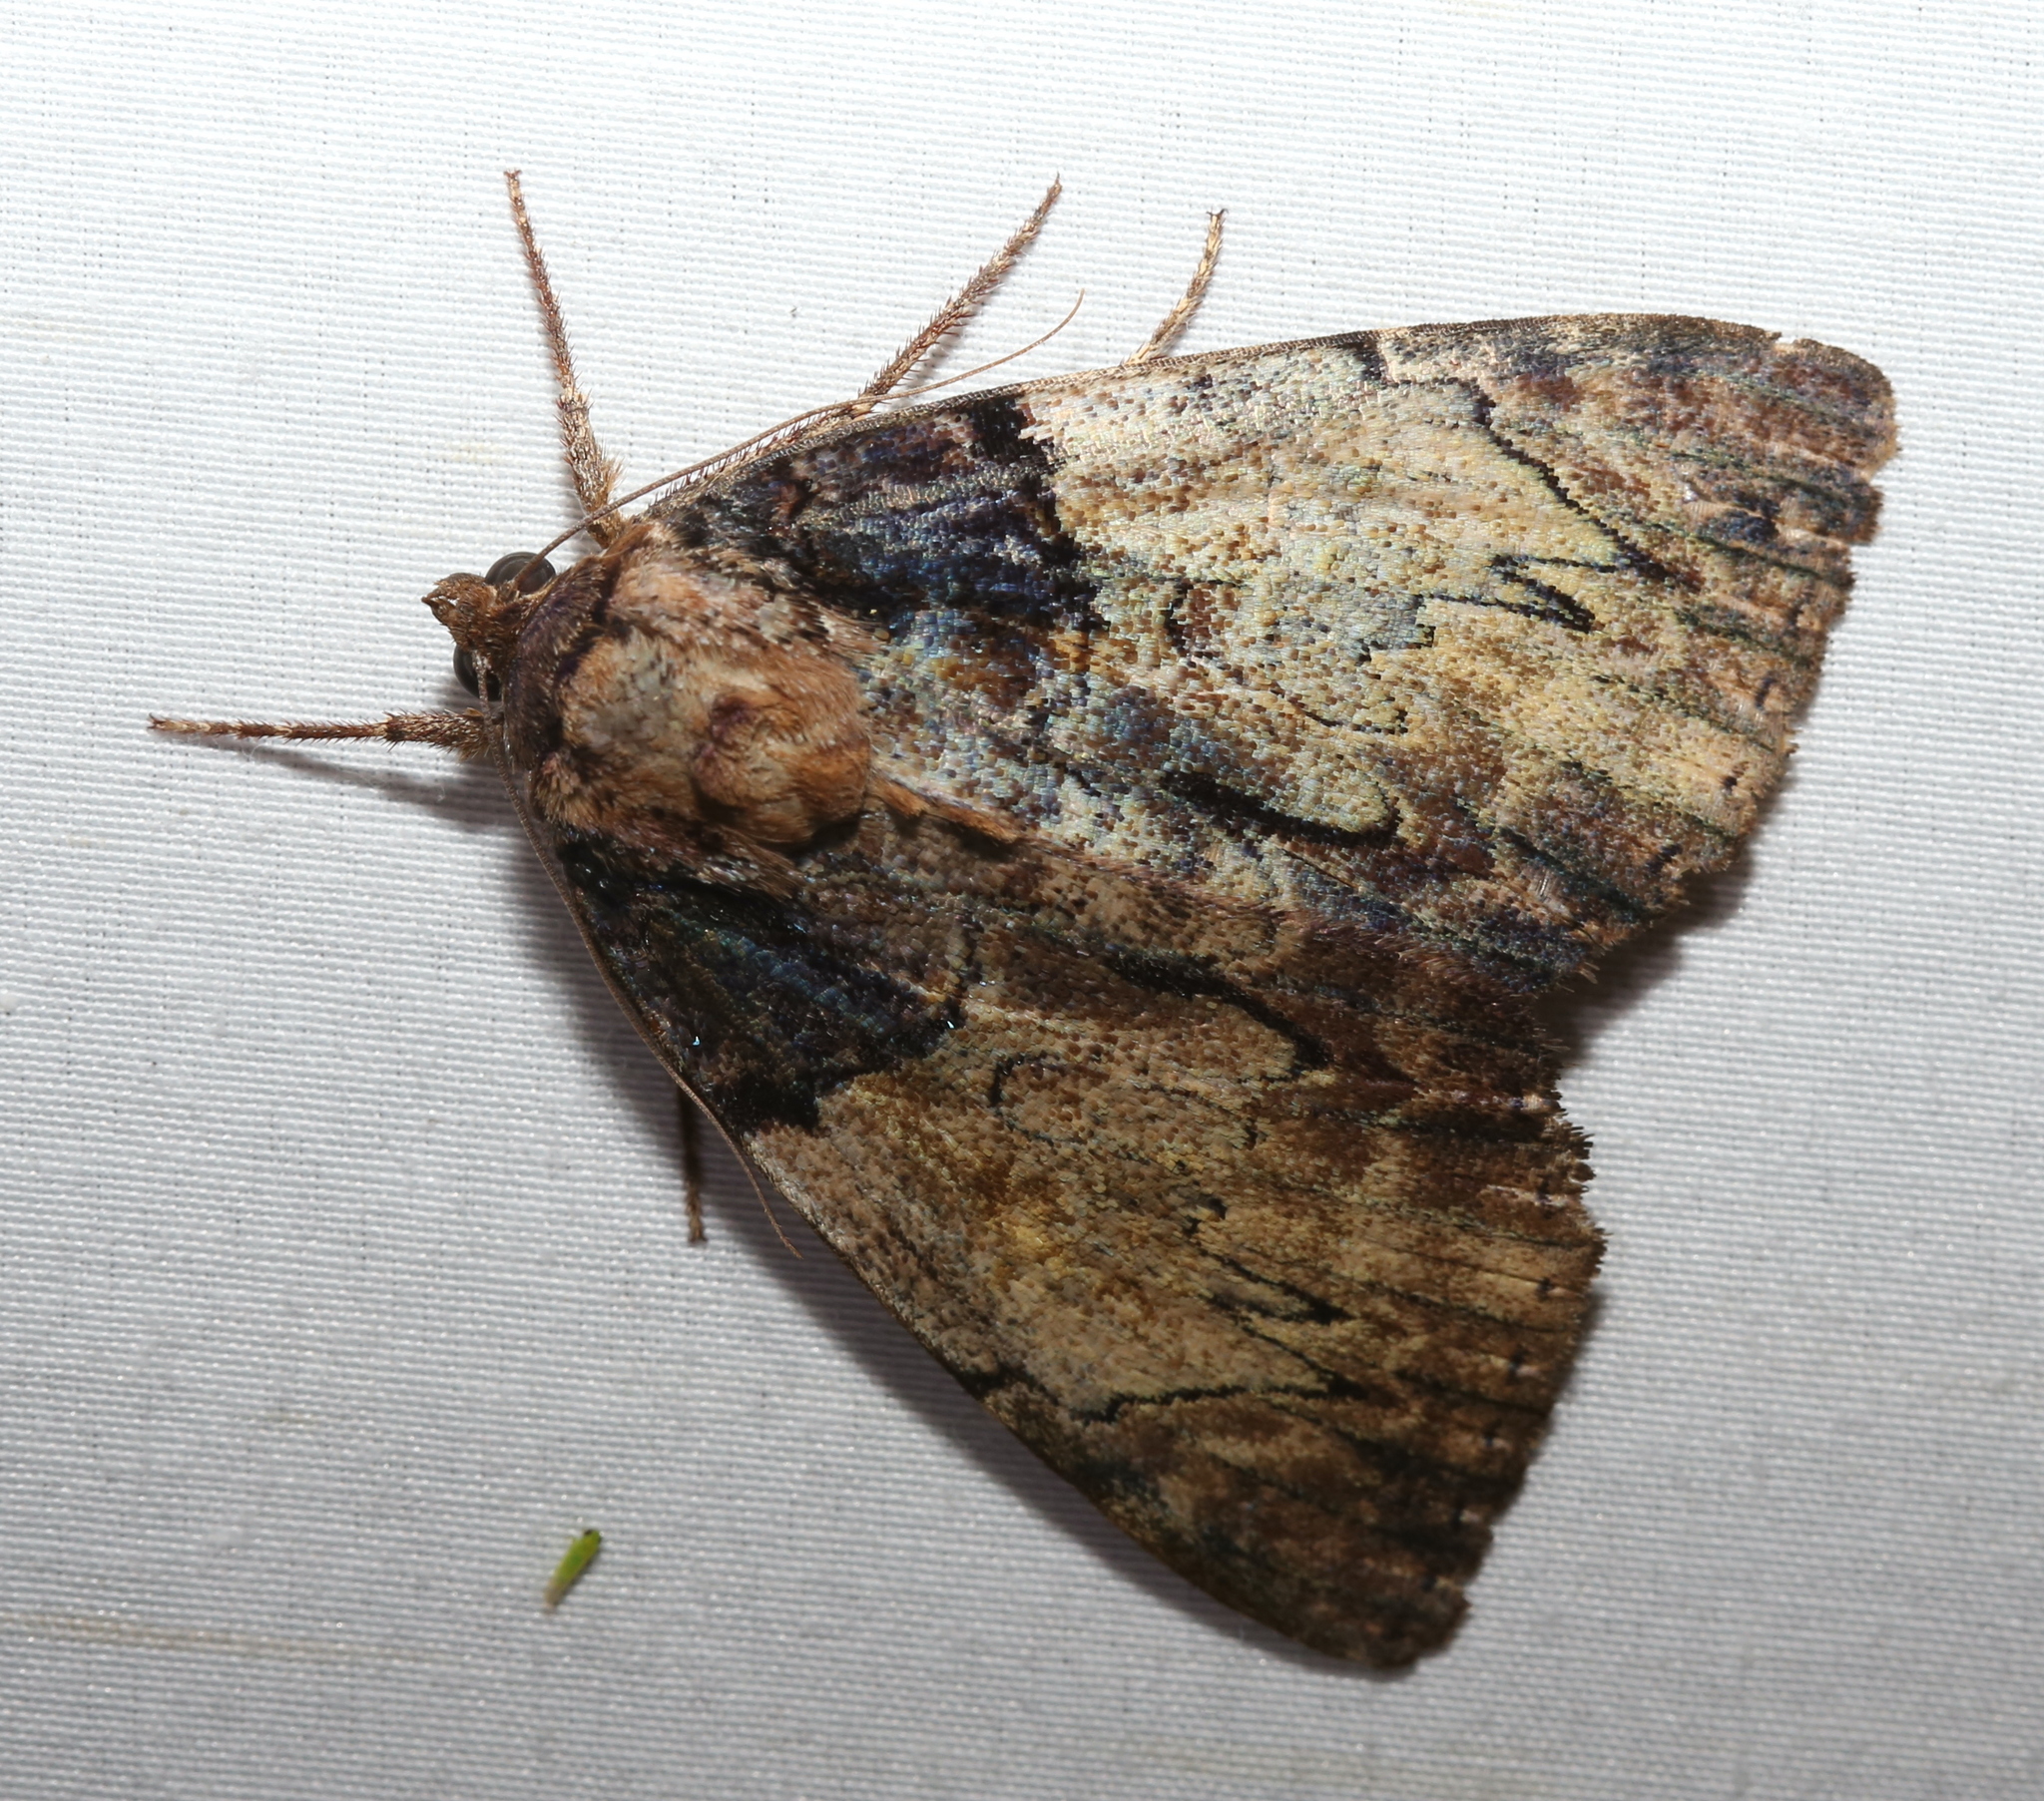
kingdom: Animalia
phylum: Arthropoda
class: Insecta
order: Lepidoptera
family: Erebidae
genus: Catocala
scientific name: Catocala nebulosa
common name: Clouded underwing
